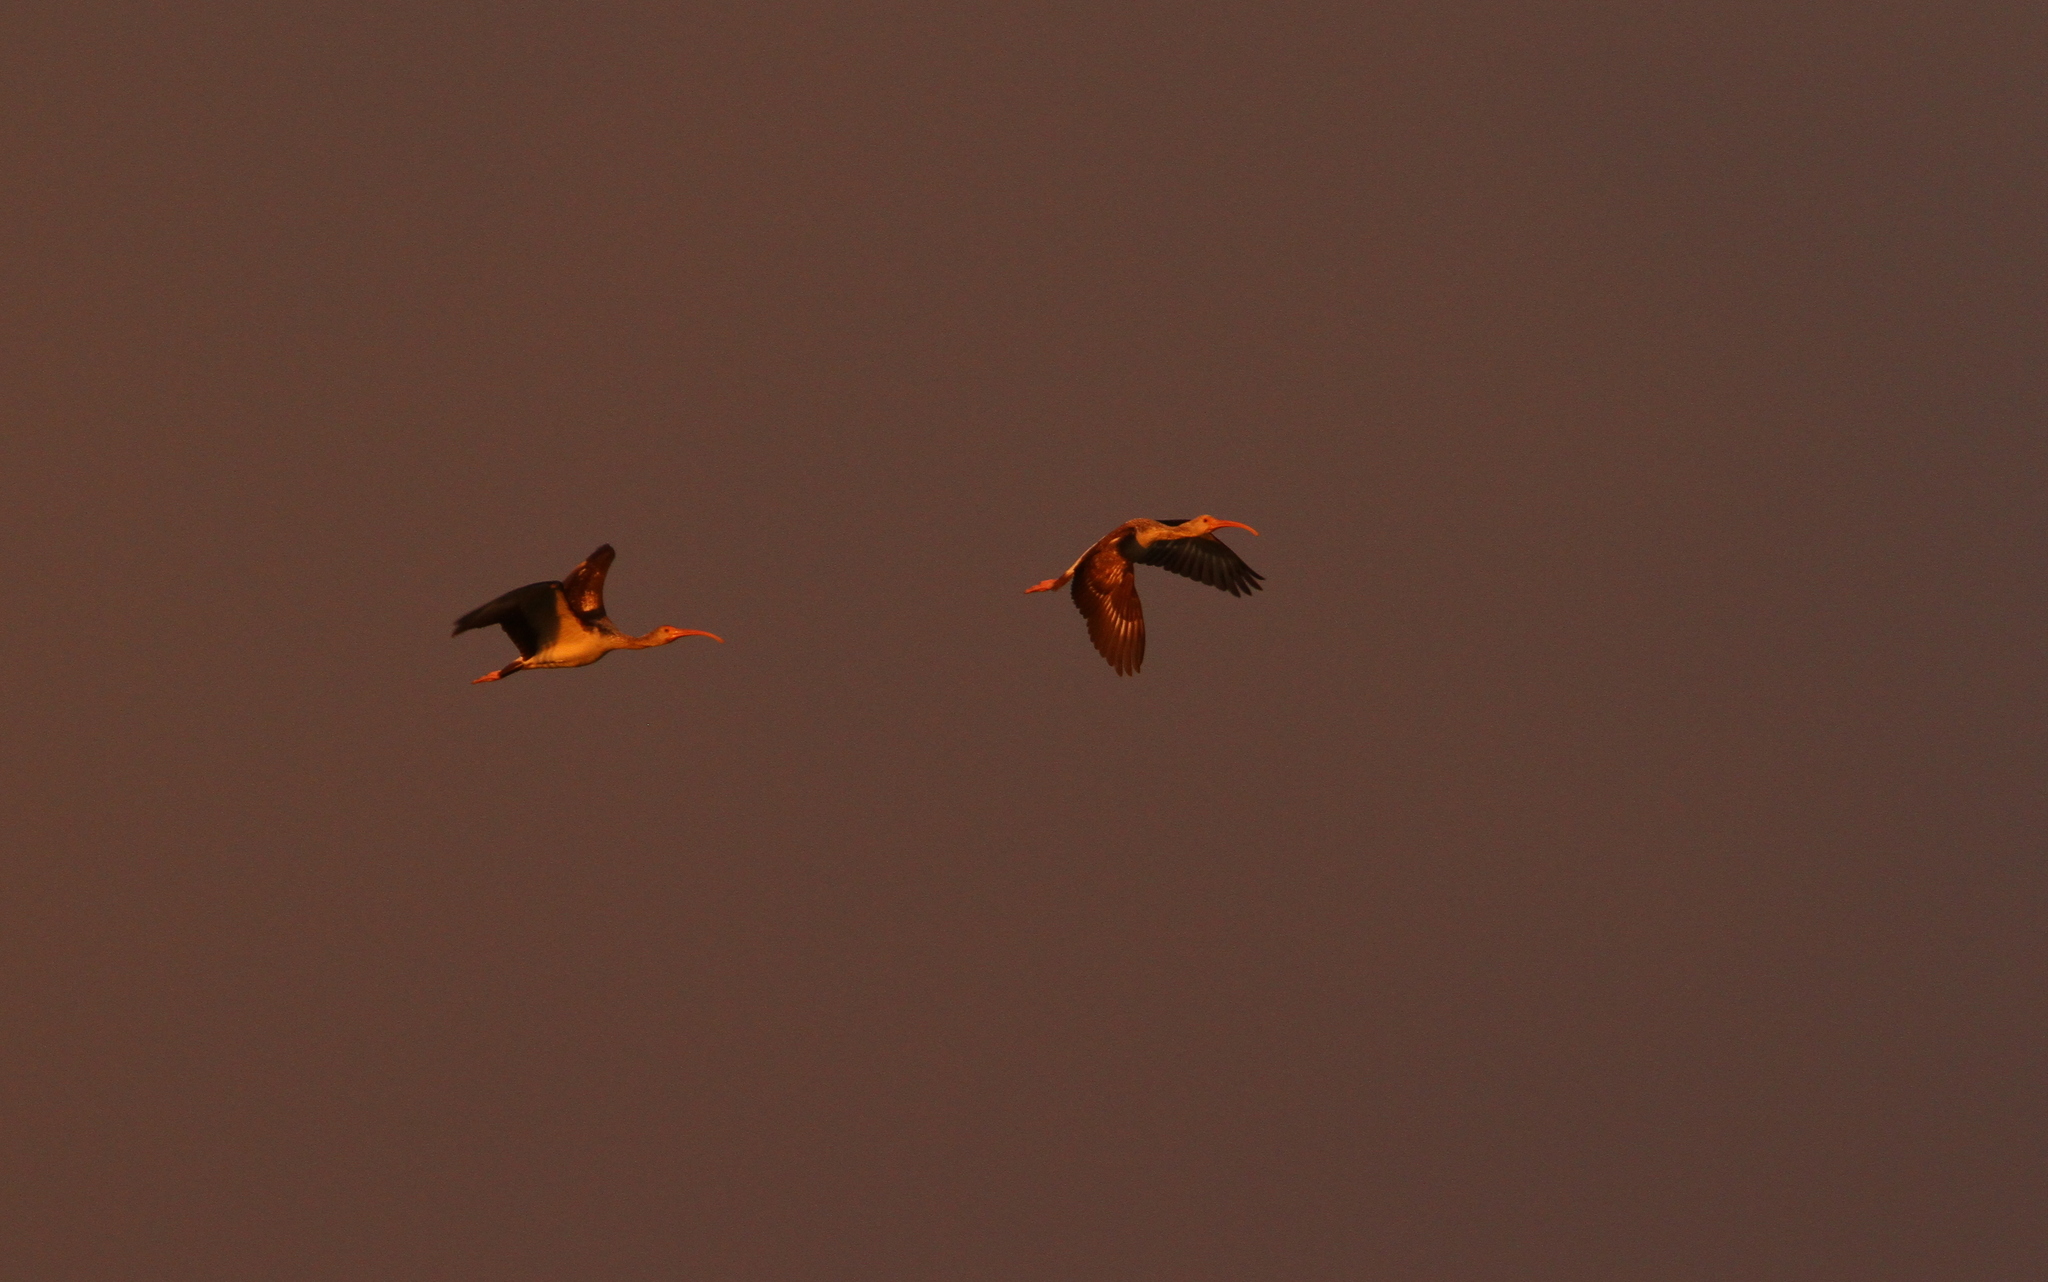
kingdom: Animalia
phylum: Chordata
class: Aves
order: Pelecaniformes
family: Threskiornithidae
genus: Eudocimus
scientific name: Eudocimus albus
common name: White ibis
